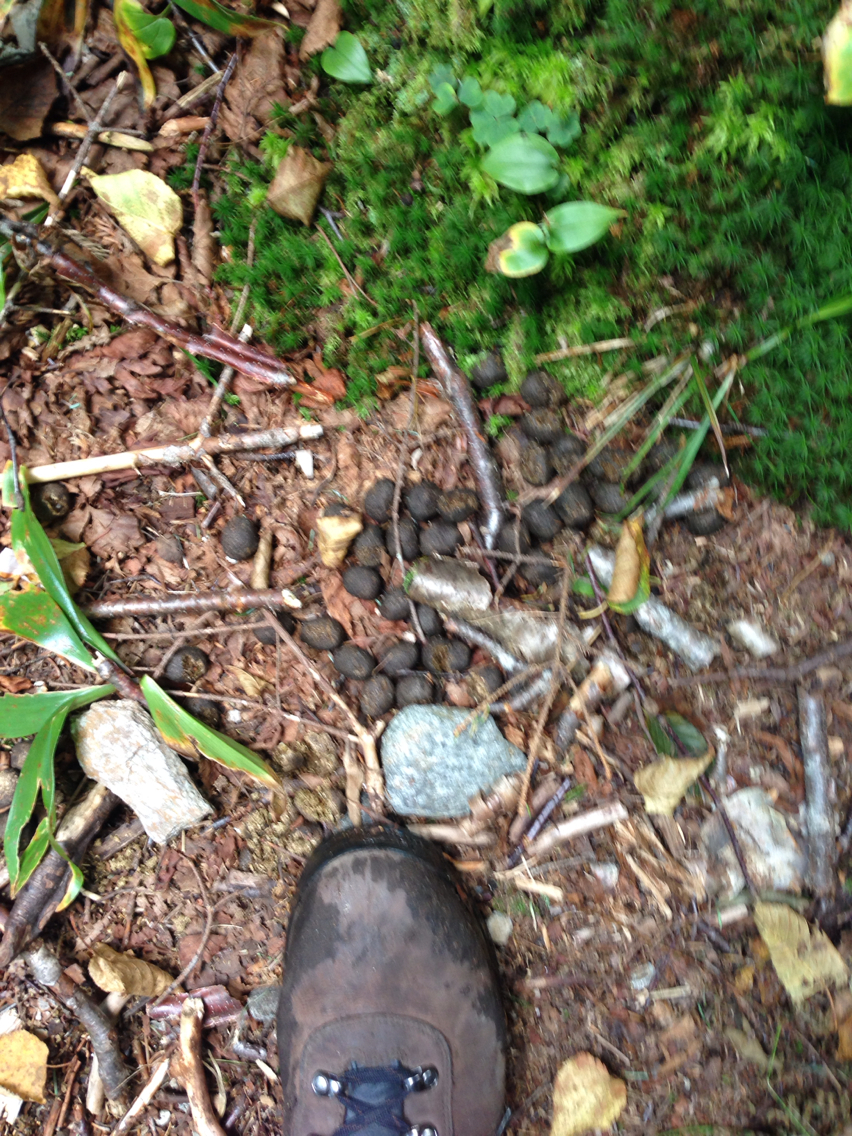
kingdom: Animalia
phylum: Chordata
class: Mammalia
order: Artiodactyla
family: Cervidae
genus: Alces
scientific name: Alces alces
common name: Moose
